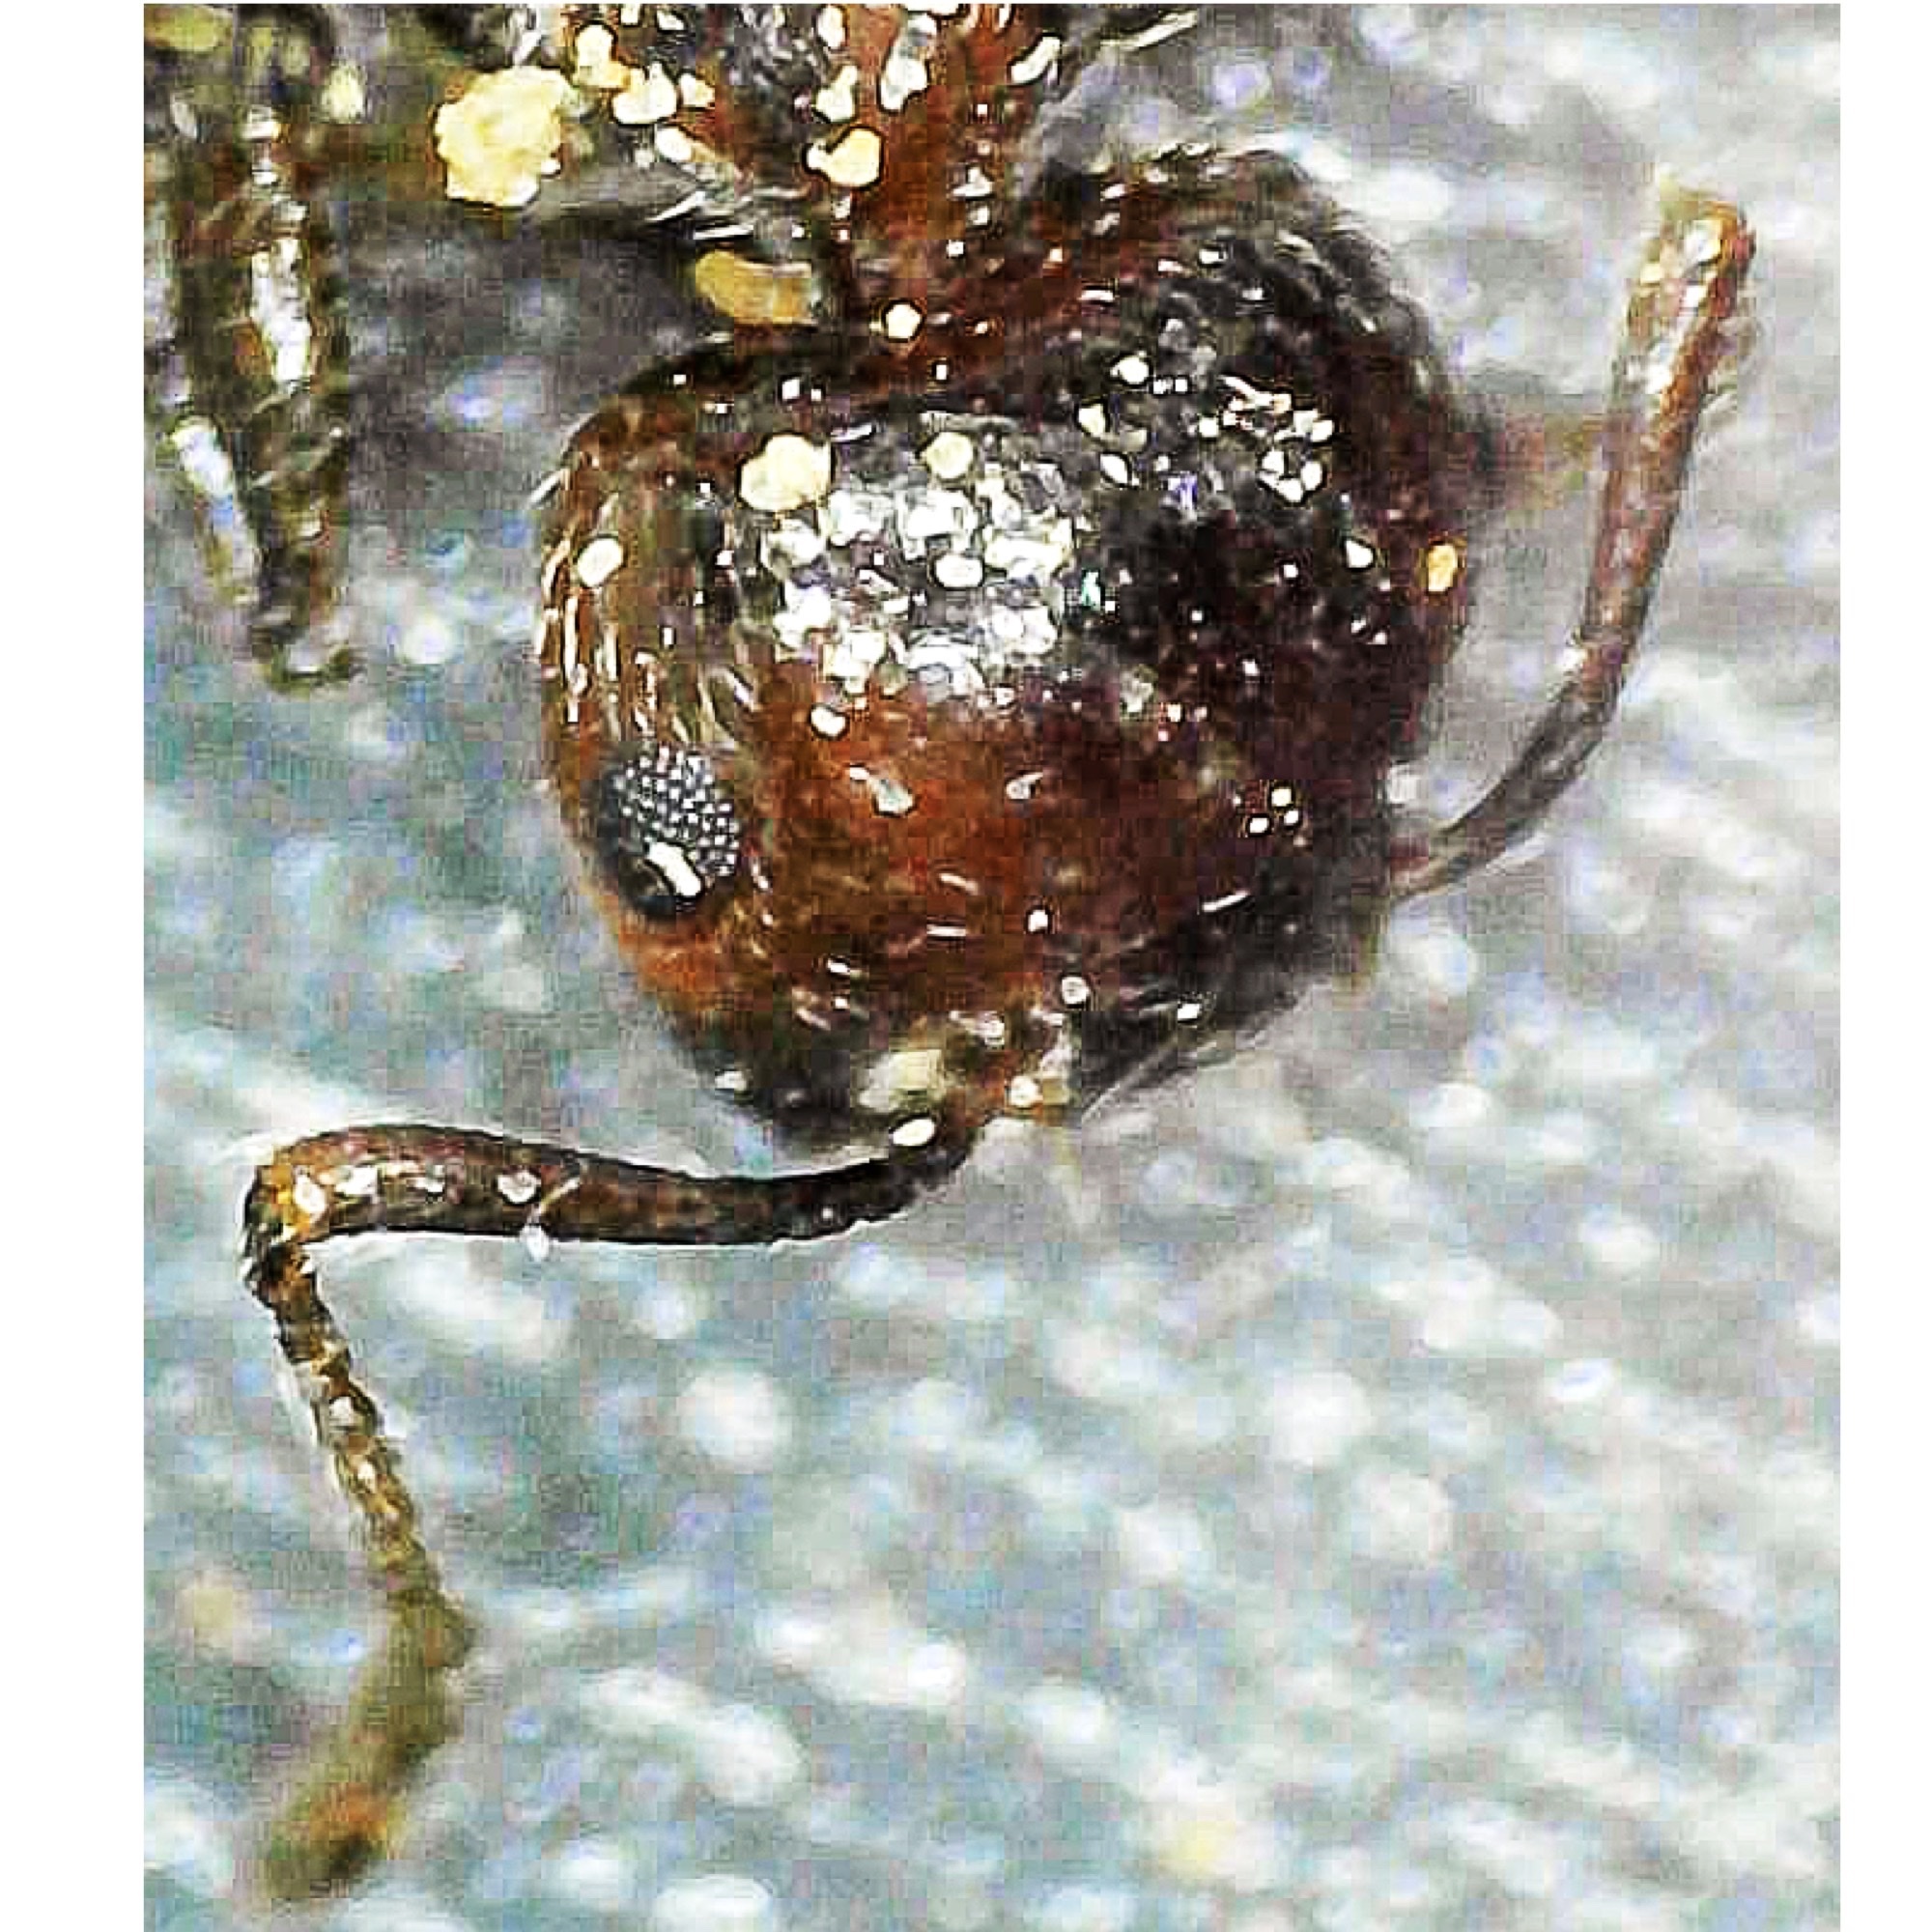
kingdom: Animalia
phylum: Arthropoda
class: Insecta
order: Hymenoptera
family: Formicidae
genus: Crematogaster
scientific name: Crematogaster pilosa
